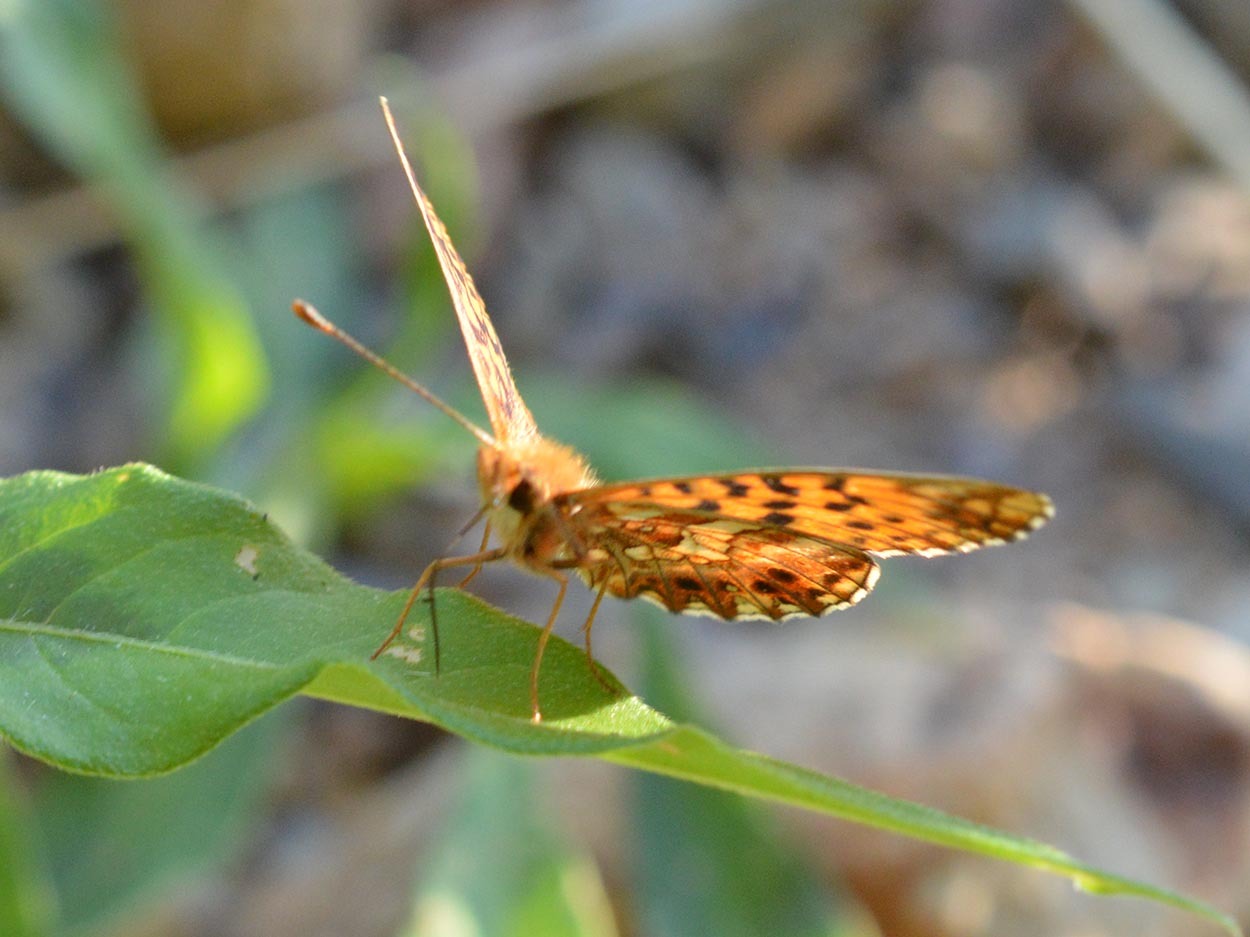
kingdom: Animalia
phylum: Arthropoda
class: Insecta
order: Lepidoptera
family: Nymphalidae
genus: Boloria
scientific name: Boloria dia
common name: Weaver's fritillary
